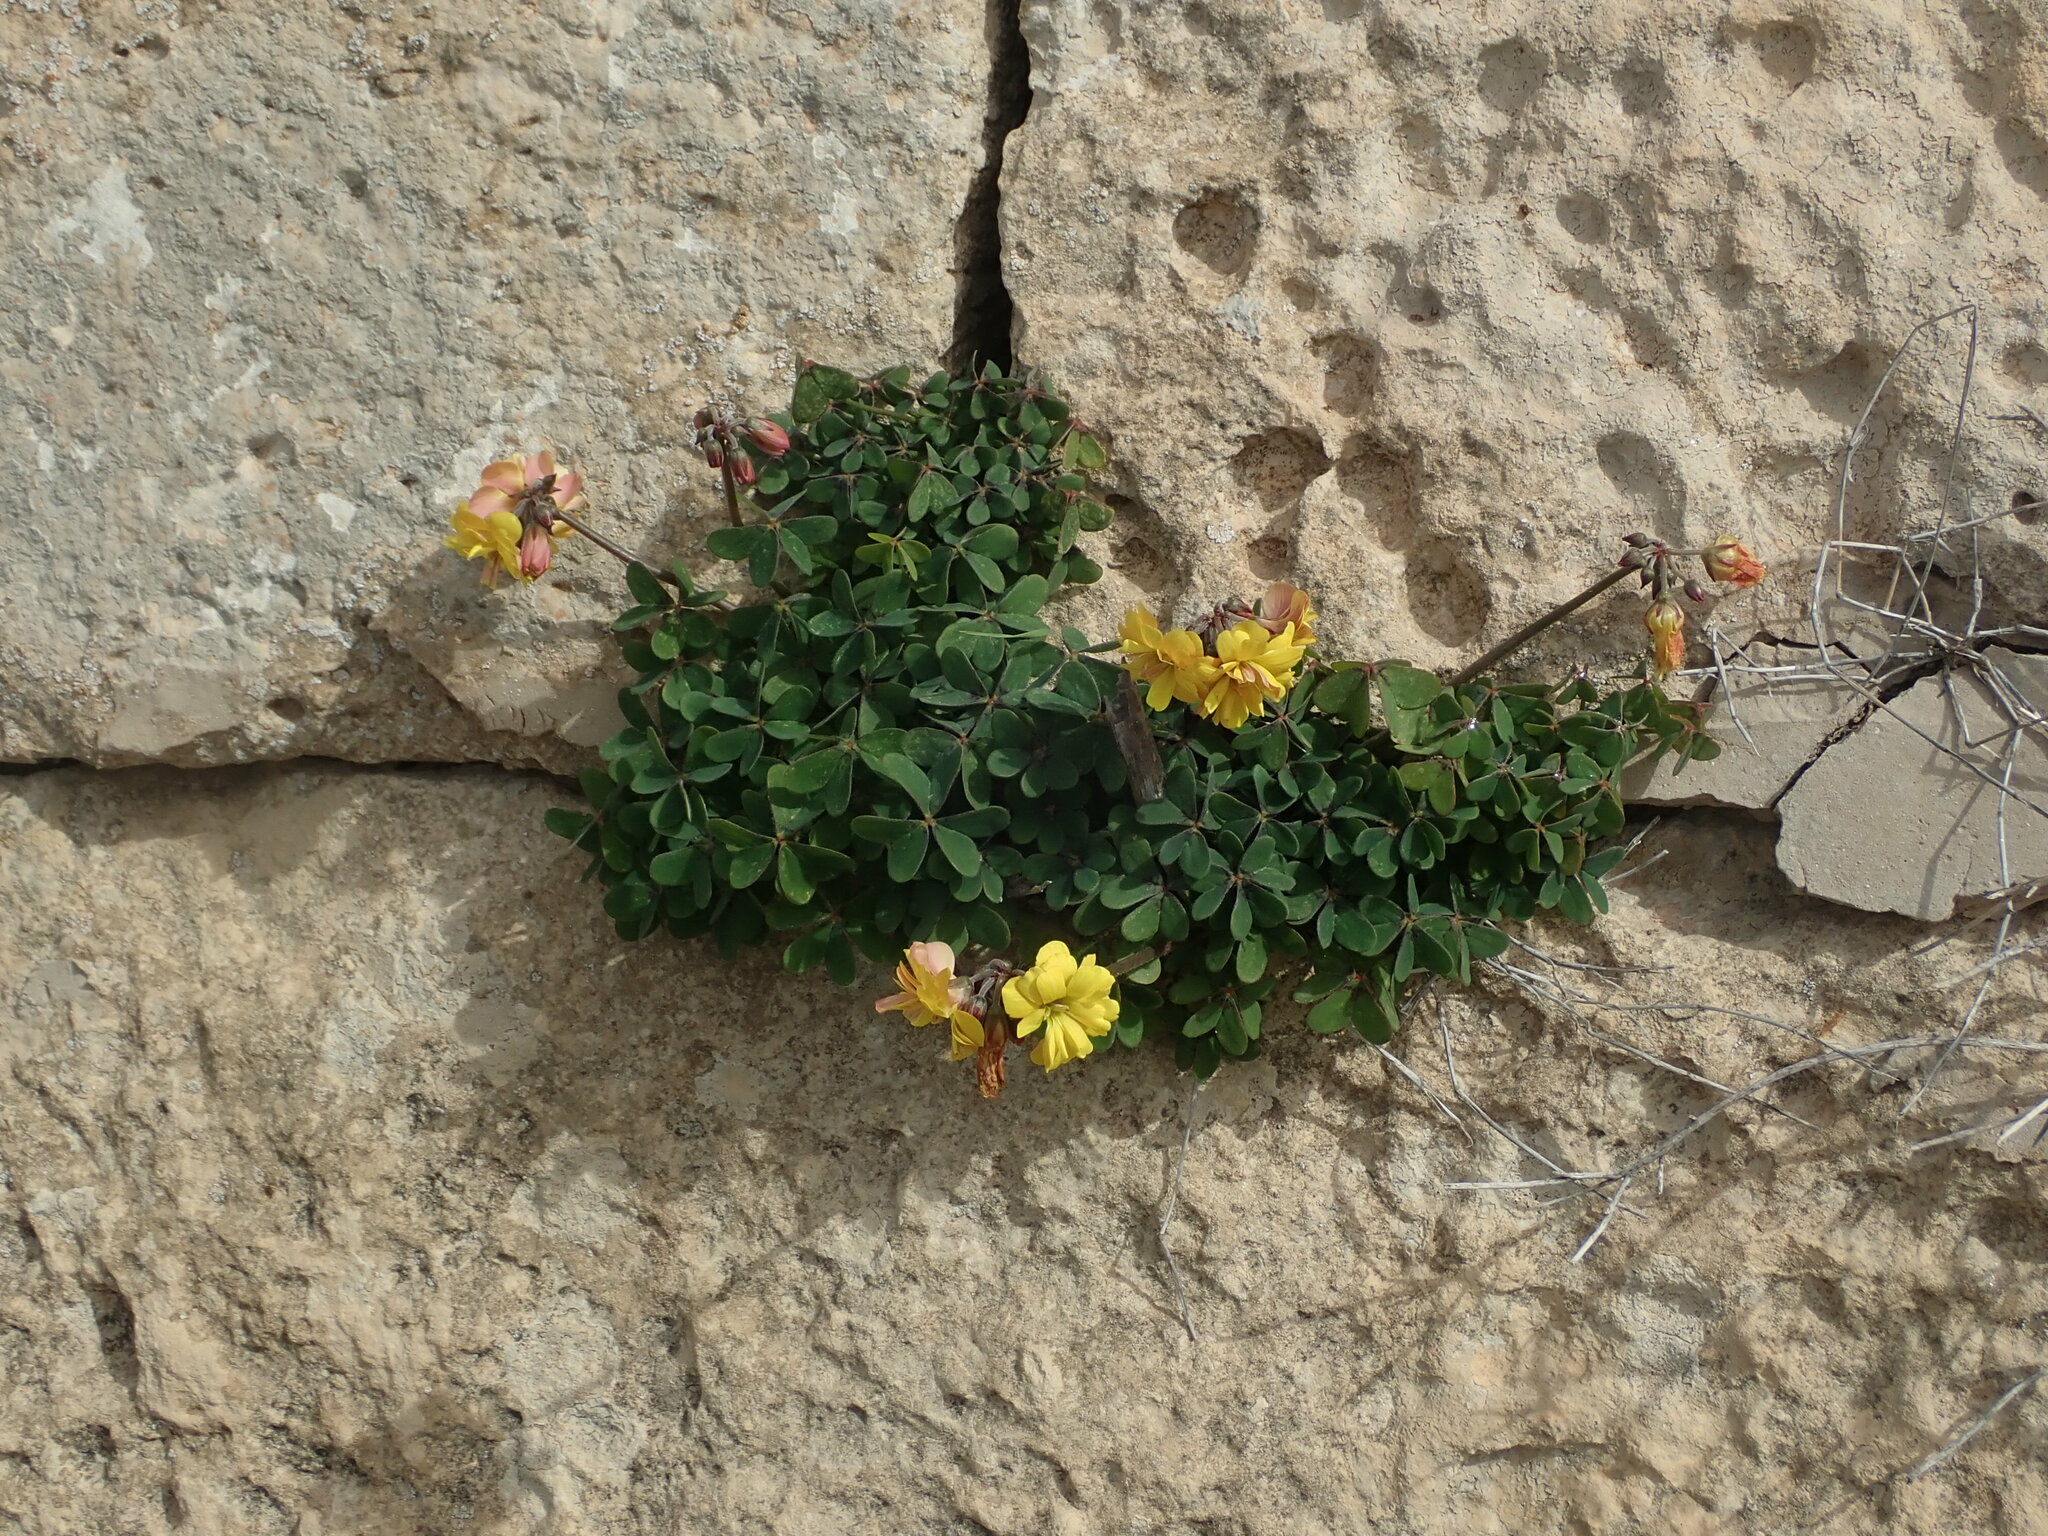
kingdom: Plantae
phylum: Tracheophyta
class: Magnoliopsida
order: Oxalidales
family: Oxalidaceae
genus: Oxalis
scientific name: Oxalis pes-caprae
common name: Bermuda-buttercup
